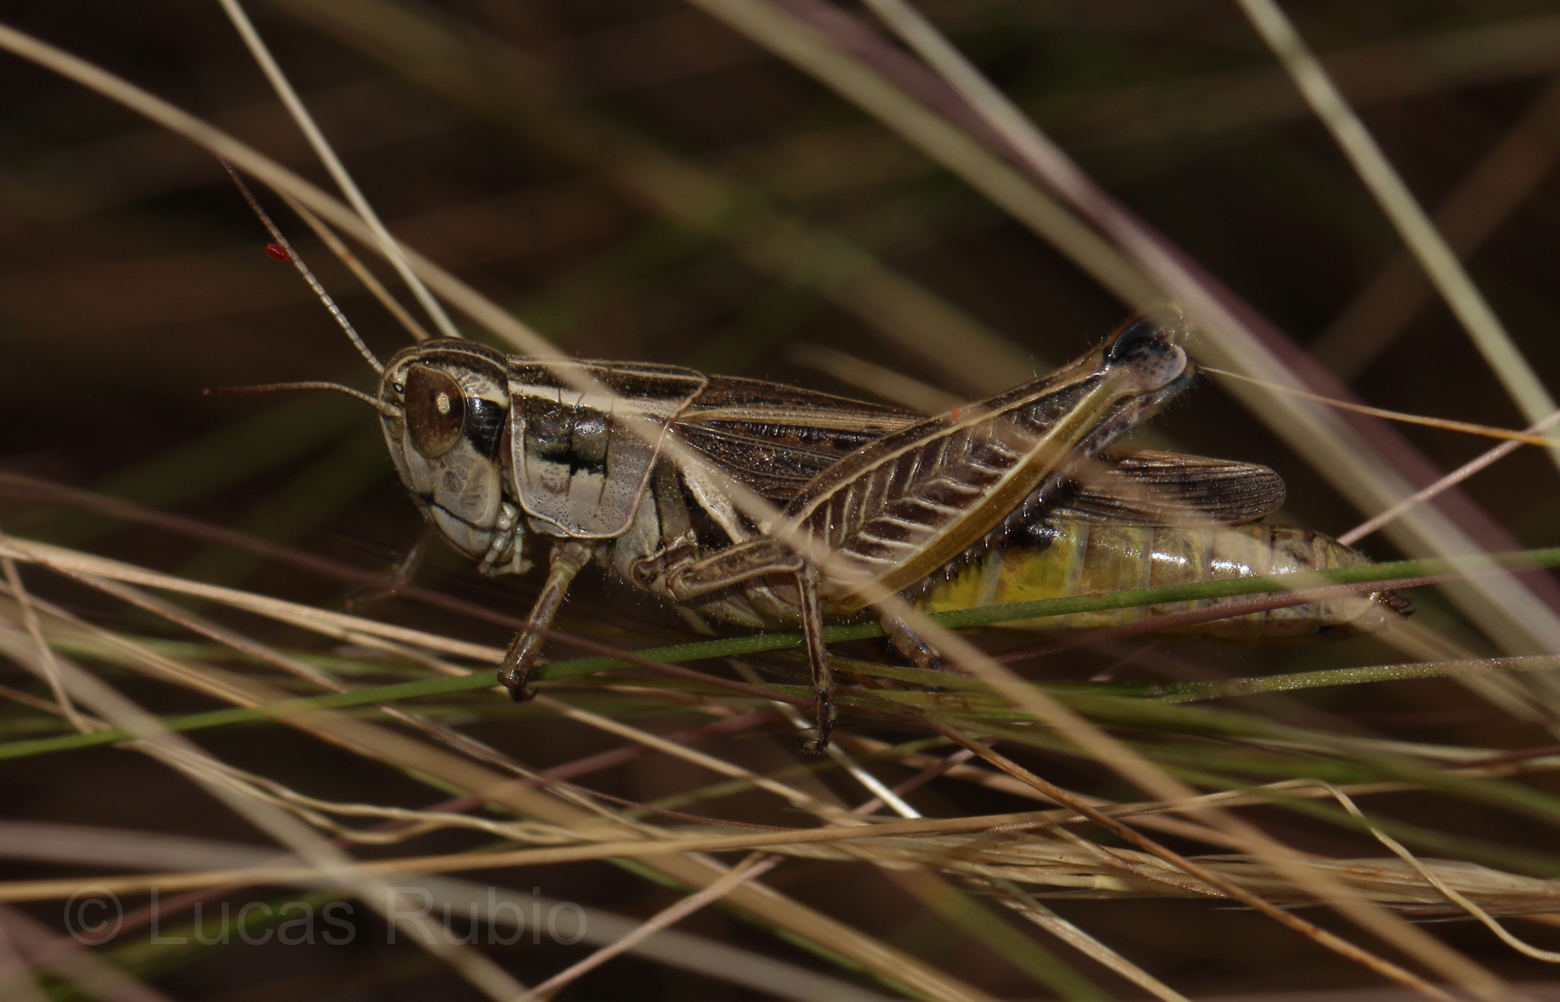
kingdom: Animalia
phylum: Arthropoda
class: Insecta
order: Orthoptera
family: Acrididae
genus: Dichroplus
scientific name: Dichroplus pratensis
